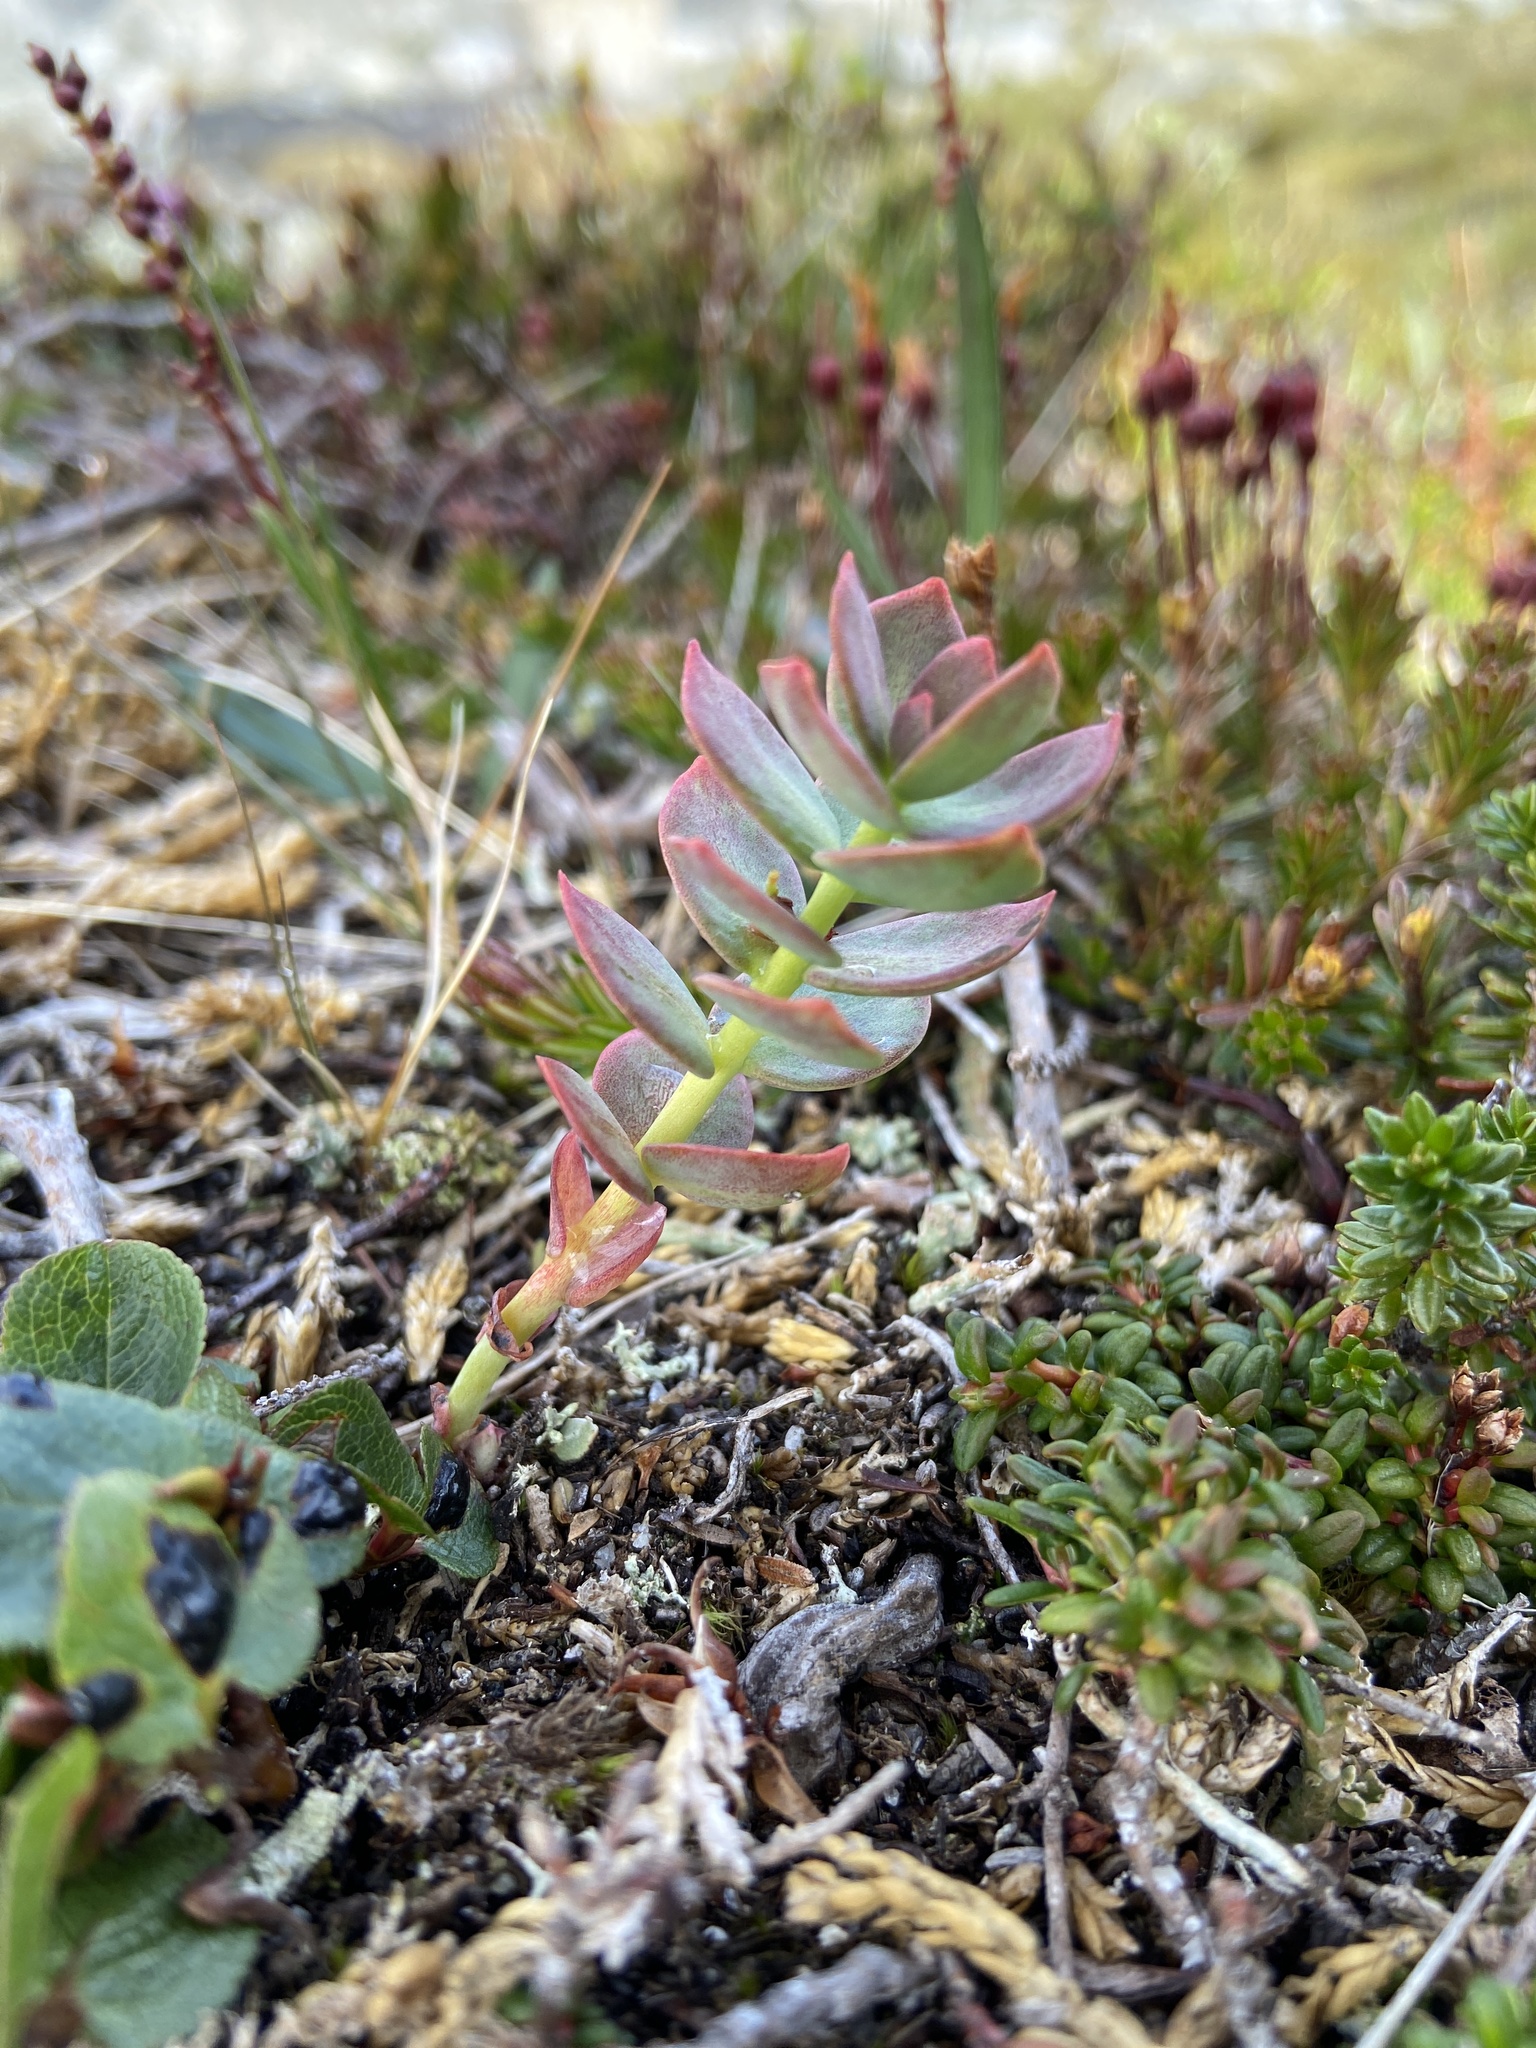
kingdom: Plantae
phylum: Tracheophyta
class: Magnoliopsida
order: Saxifragales
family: Crassulaceae
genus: Rhodiola
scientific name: Rhodiola rosea
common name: Roseroot
